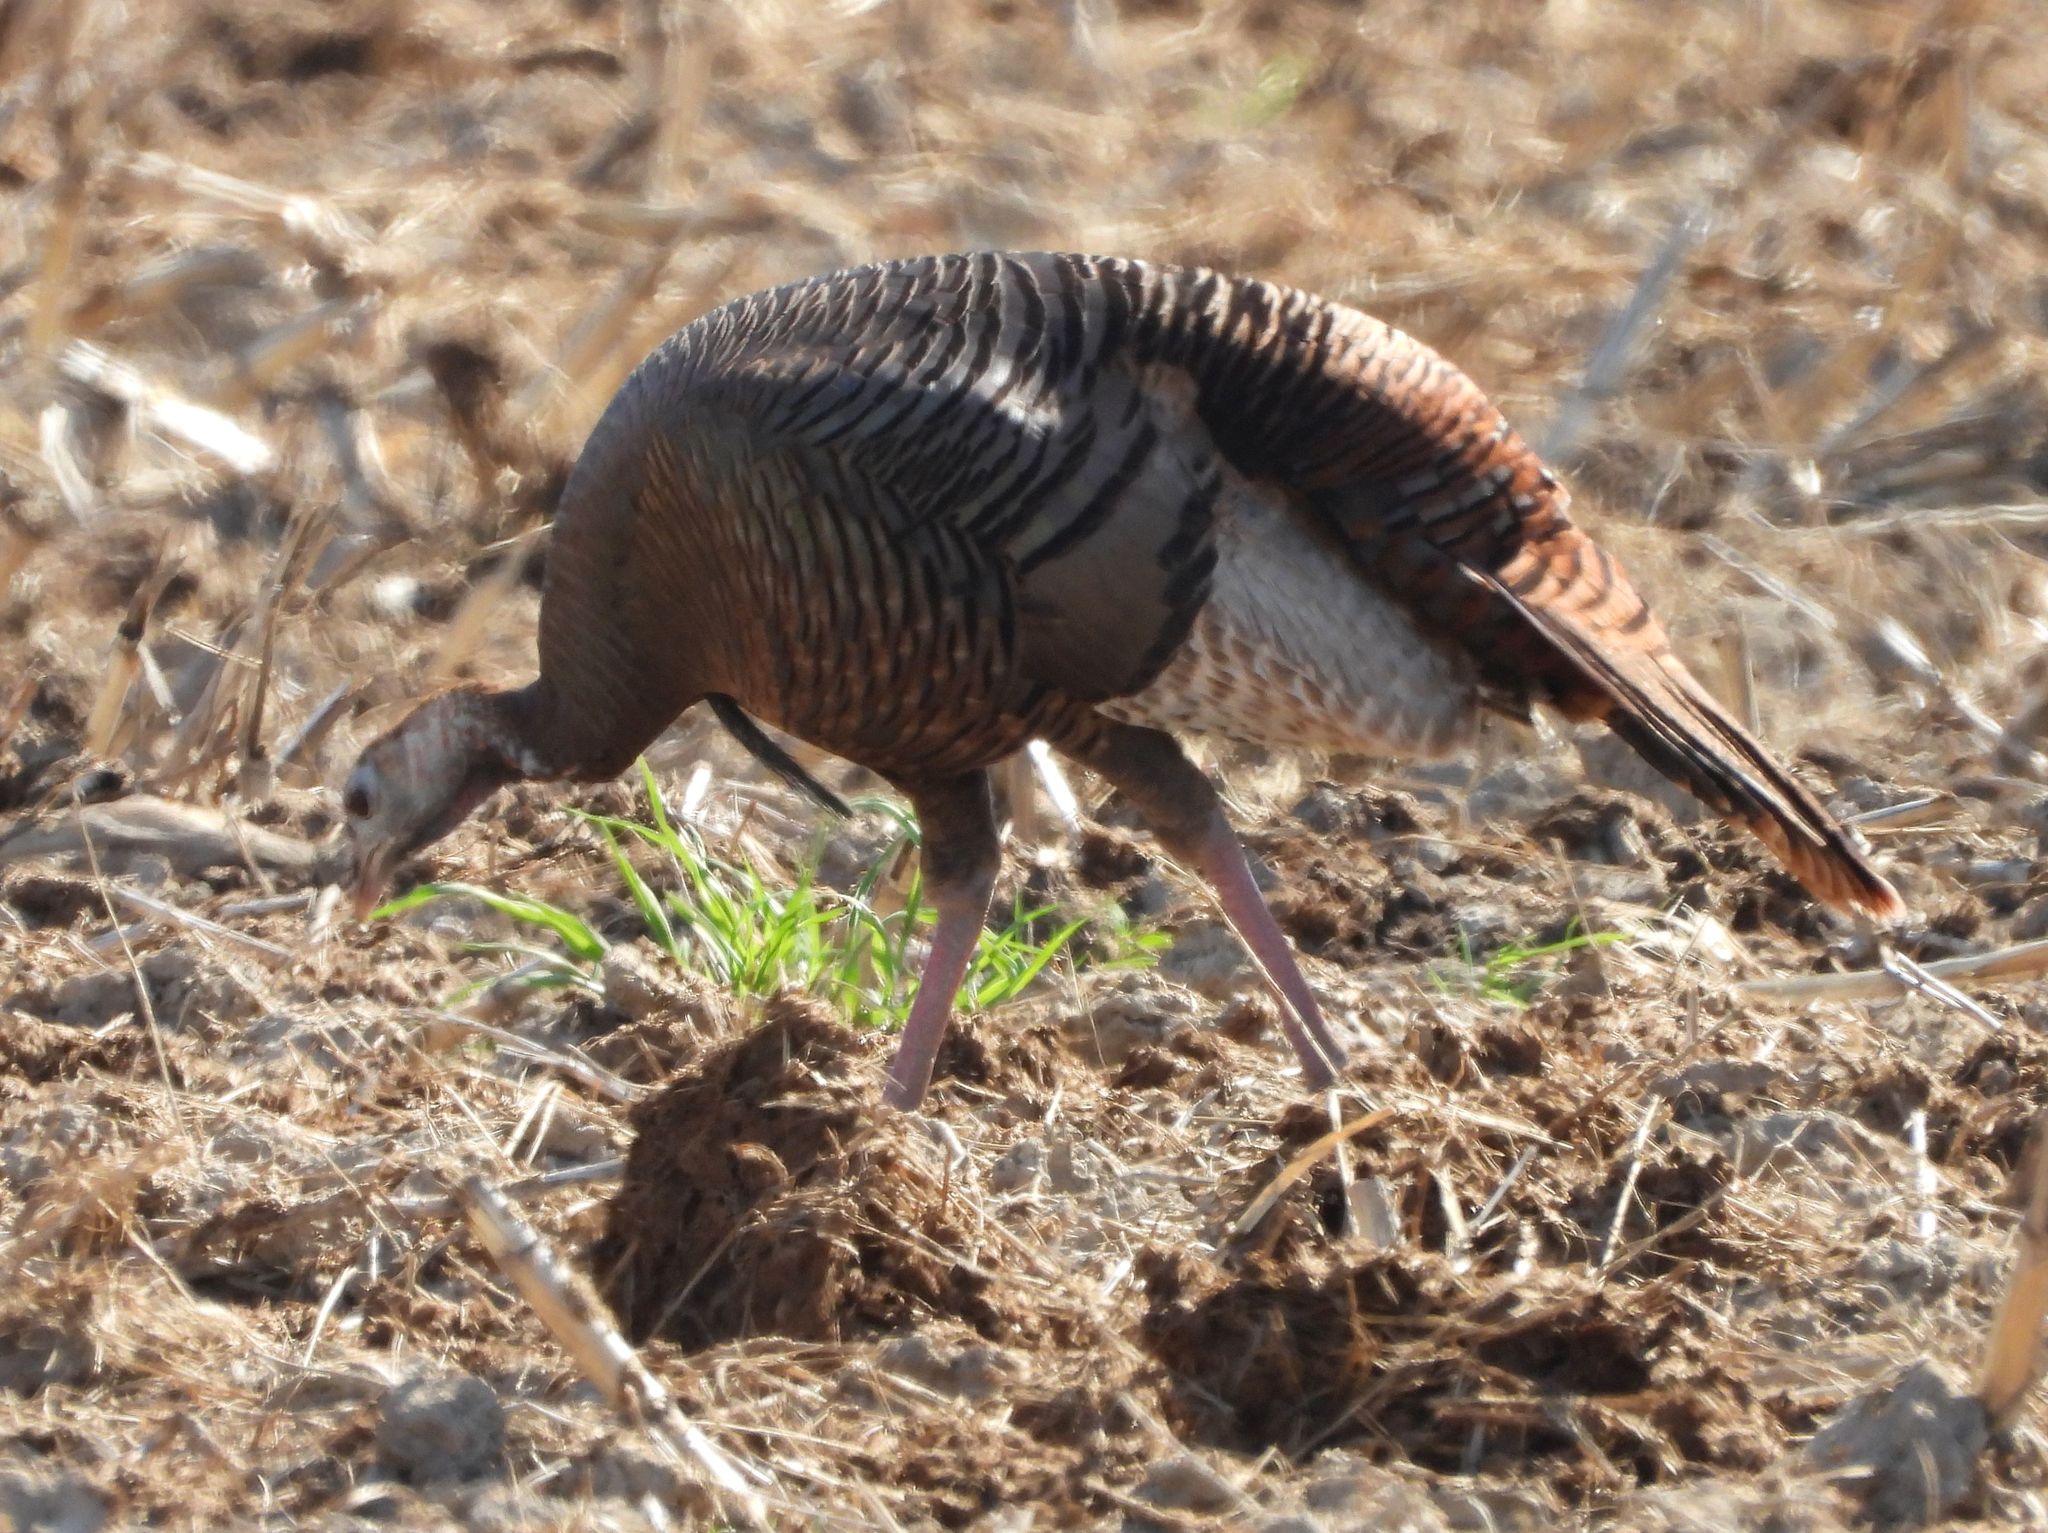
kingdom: Animalia
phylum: Chordata
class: Aves
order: Galliformes
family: Phasianidae
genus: Meleagris
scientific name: Meleagris gallopavo
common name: Wild turkey
